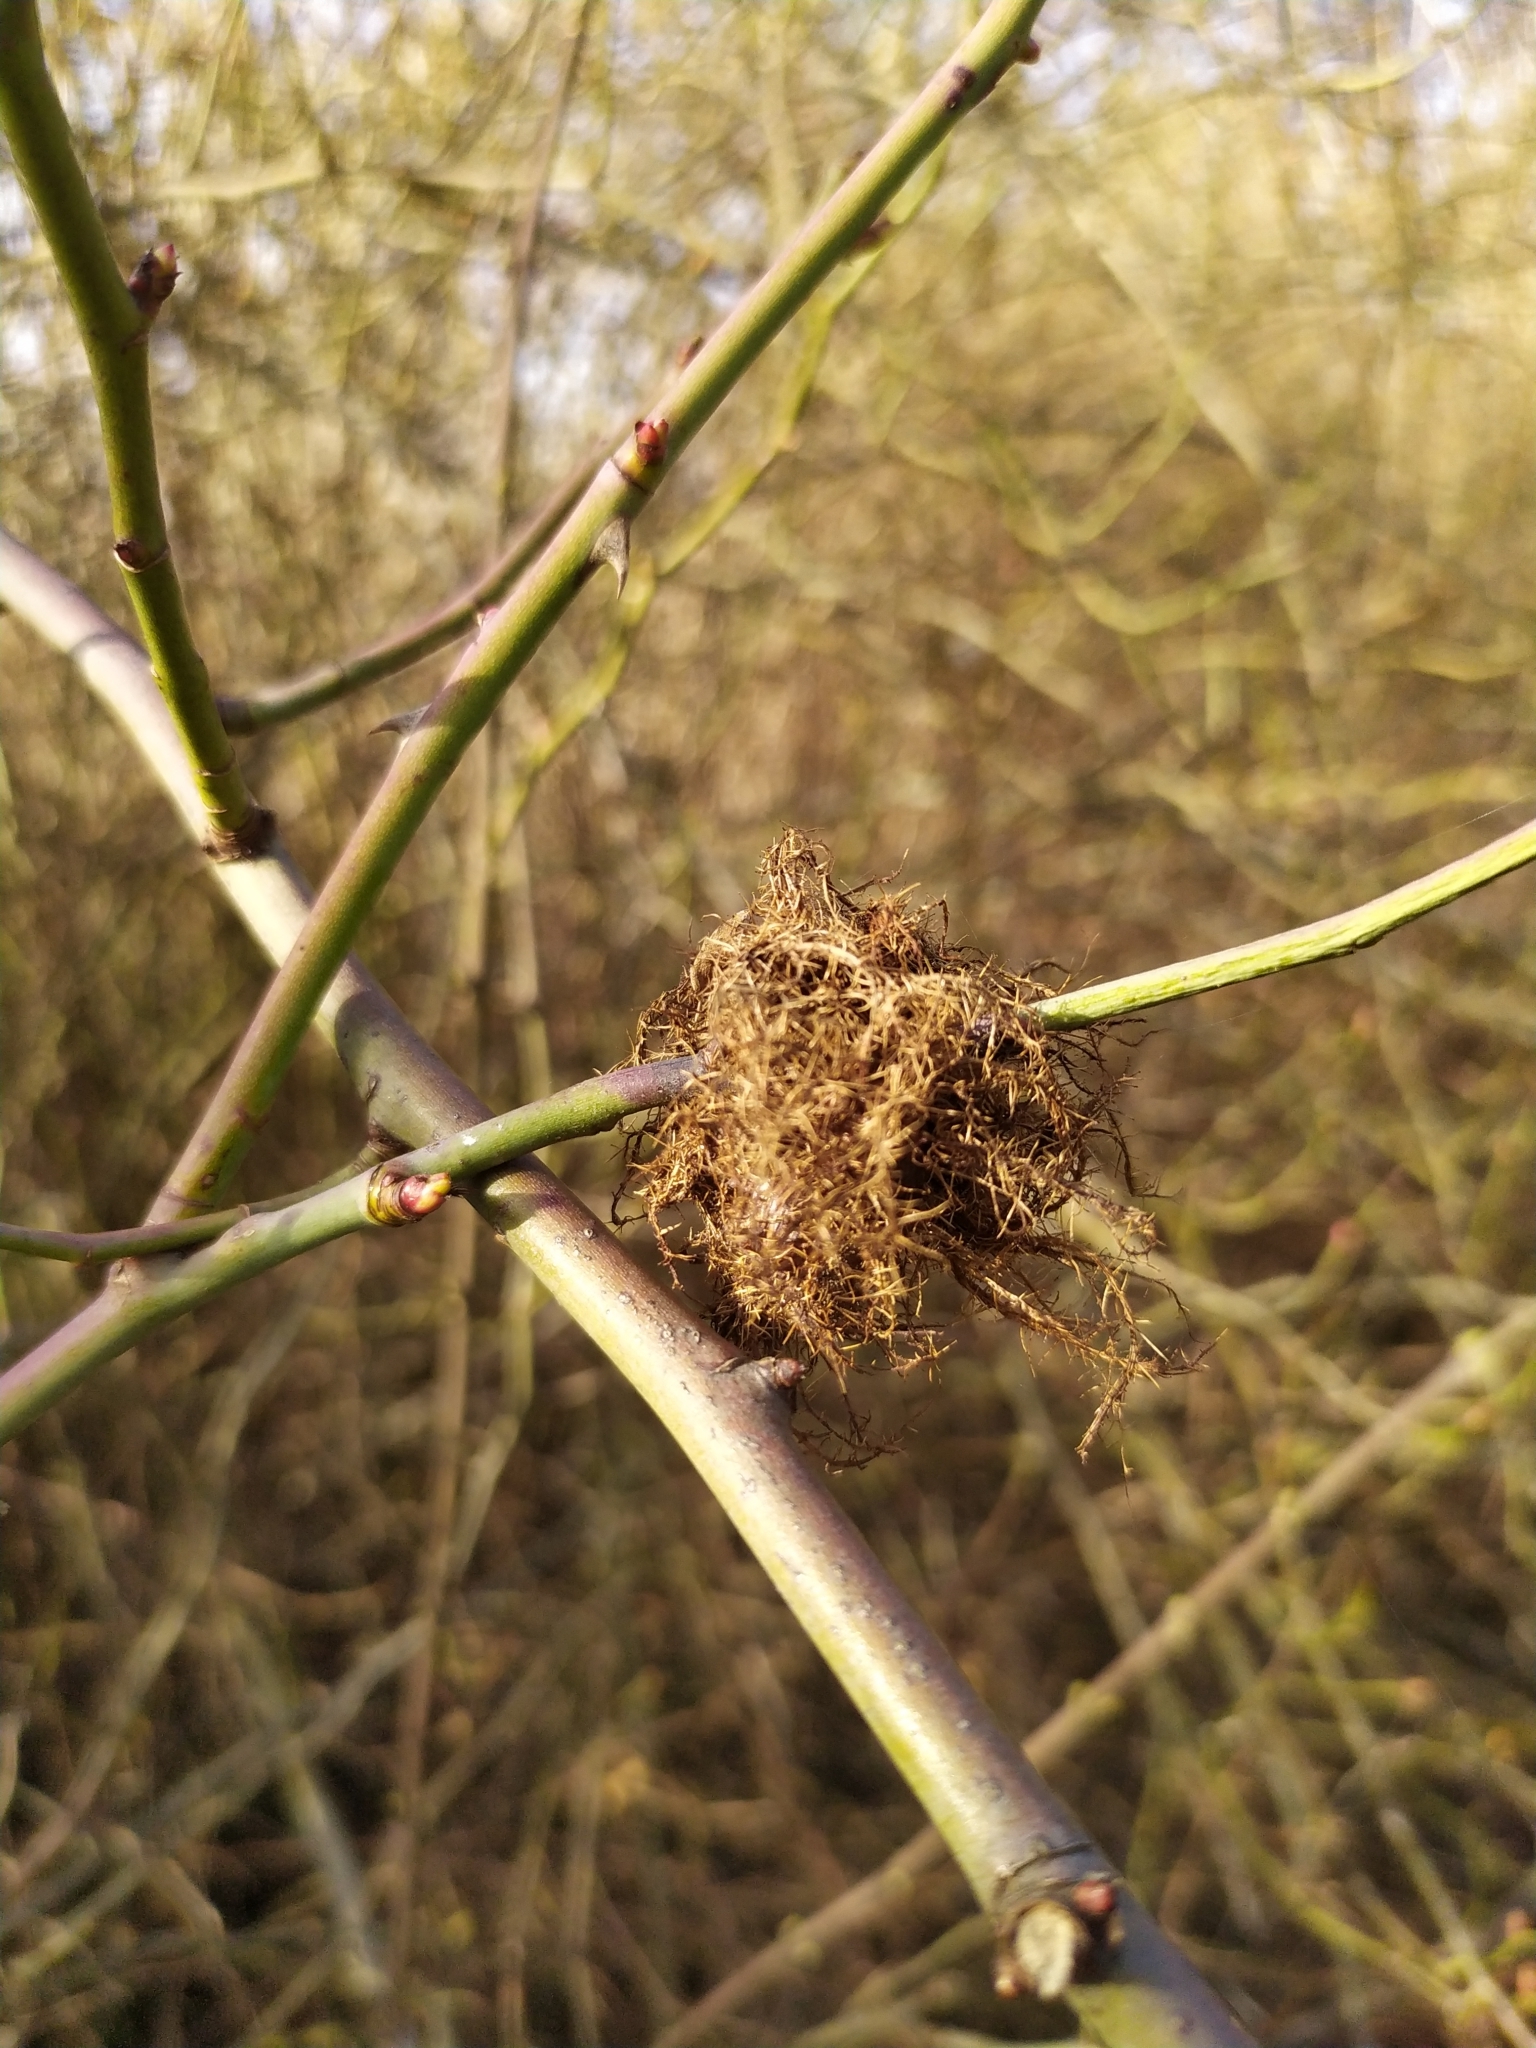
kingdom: Animalia
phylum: Arthropoda
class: Insecta
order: Hymenoptera
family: Cynipidae
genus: Diplolepis
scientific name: Diplolepis rosae
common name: Bedeguar gall
